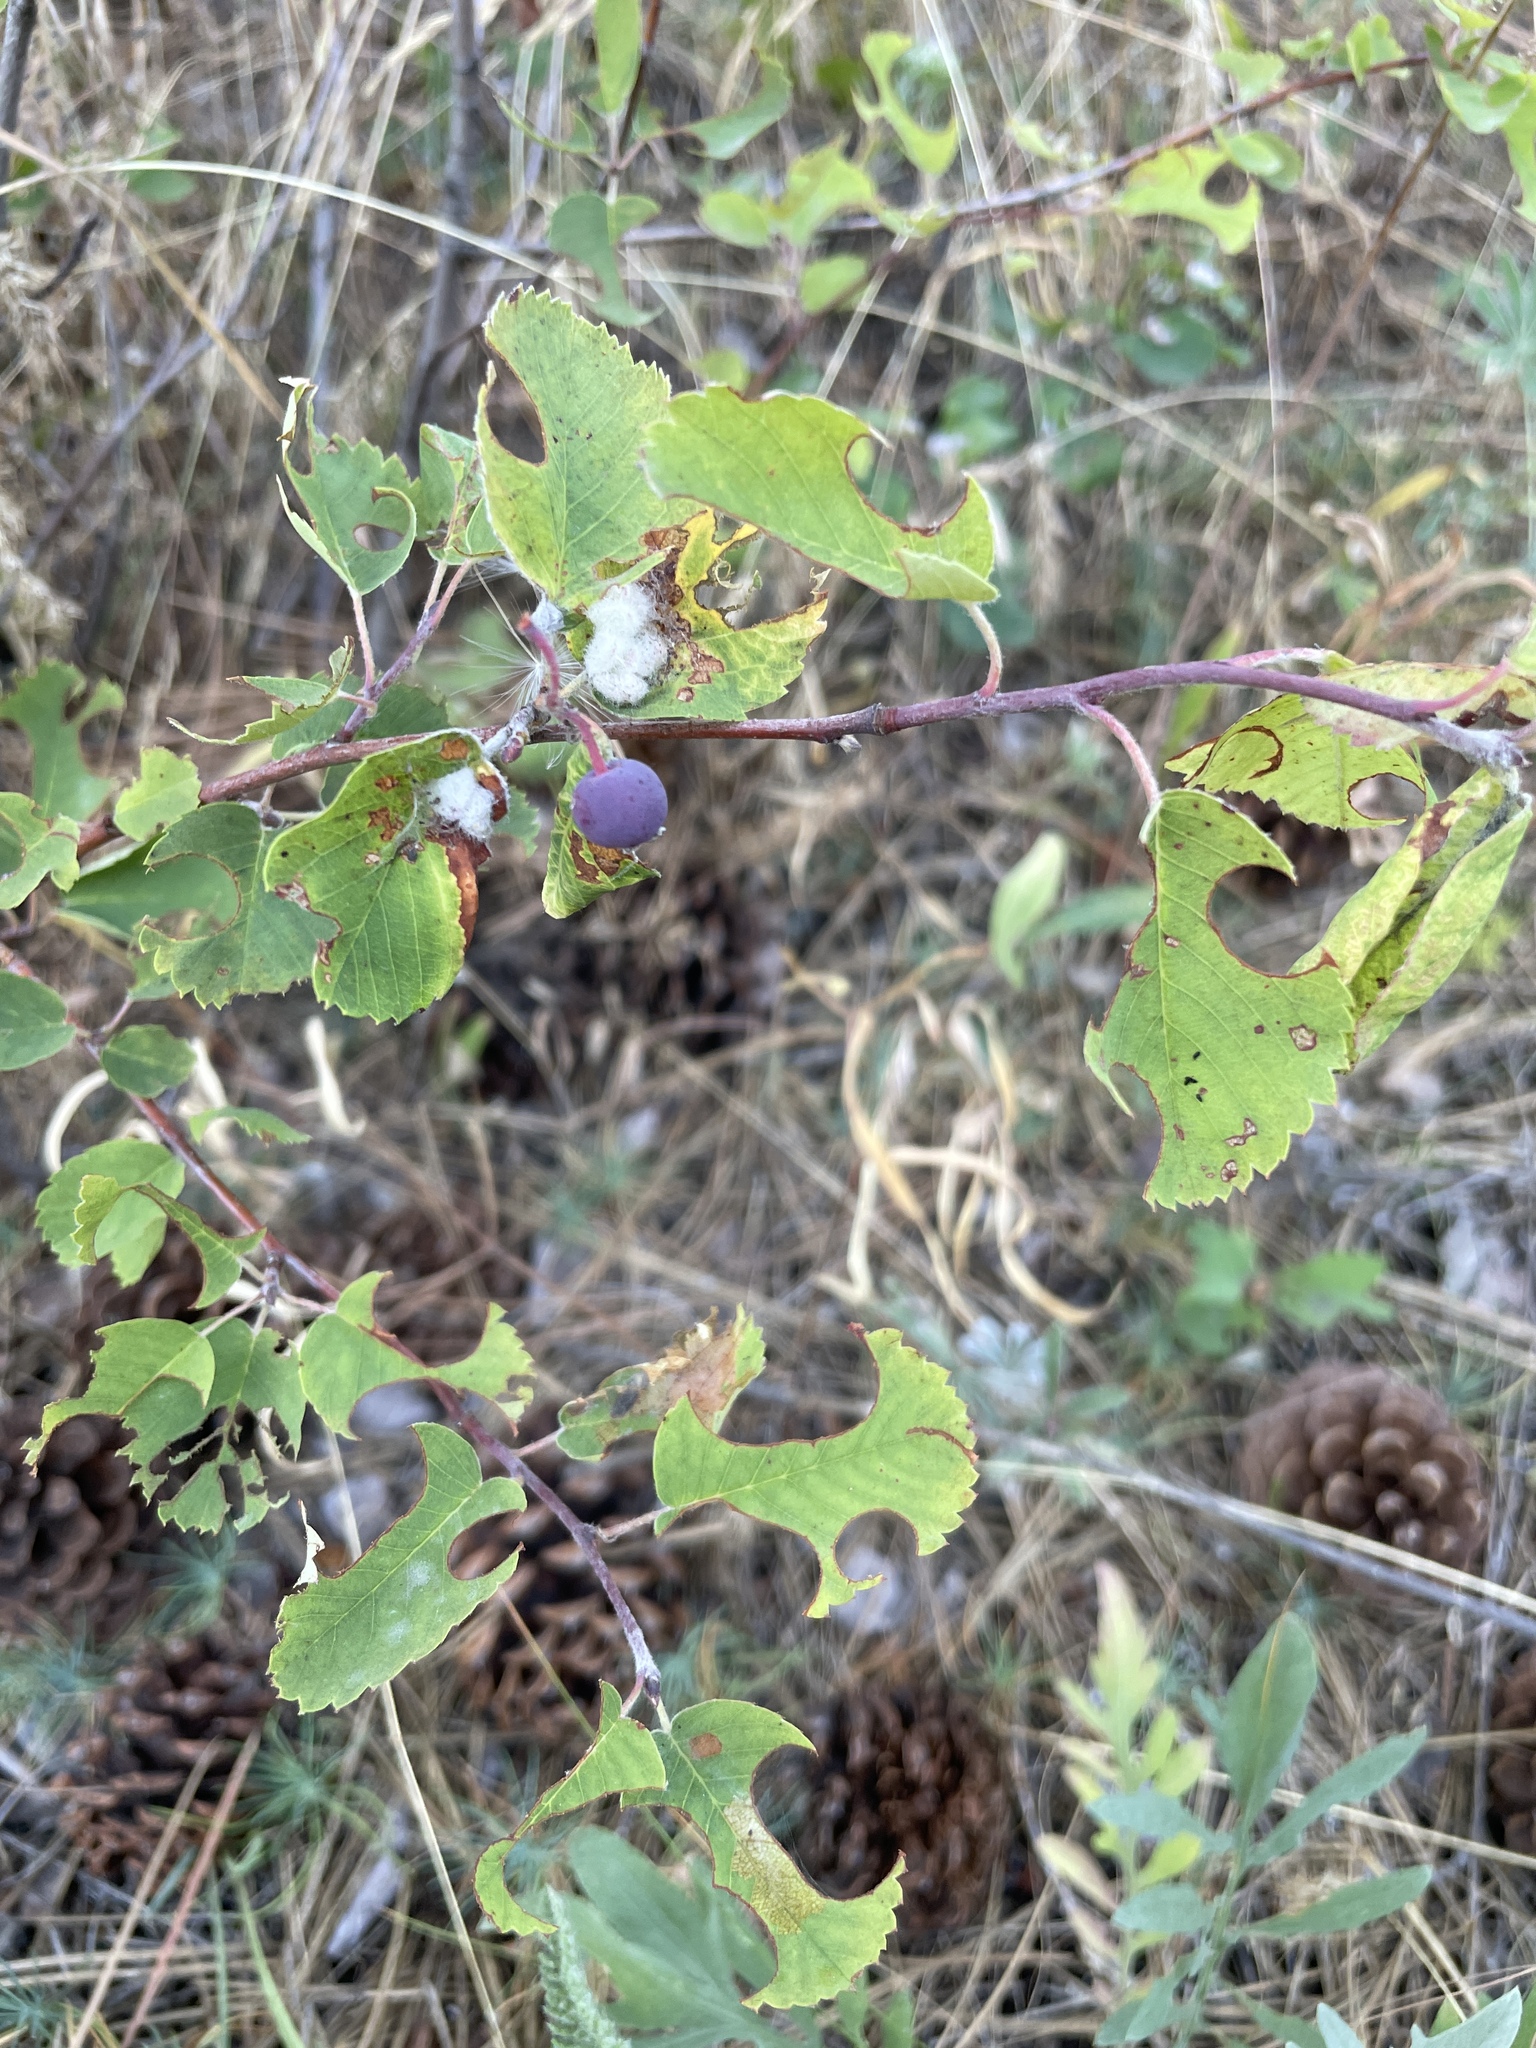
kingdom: Plantae
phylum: Tracheophyta
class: Magnoliopsida
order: Rosales
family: Rosaceae
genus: Amelanchier
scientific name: Amelanchier alnifolia
